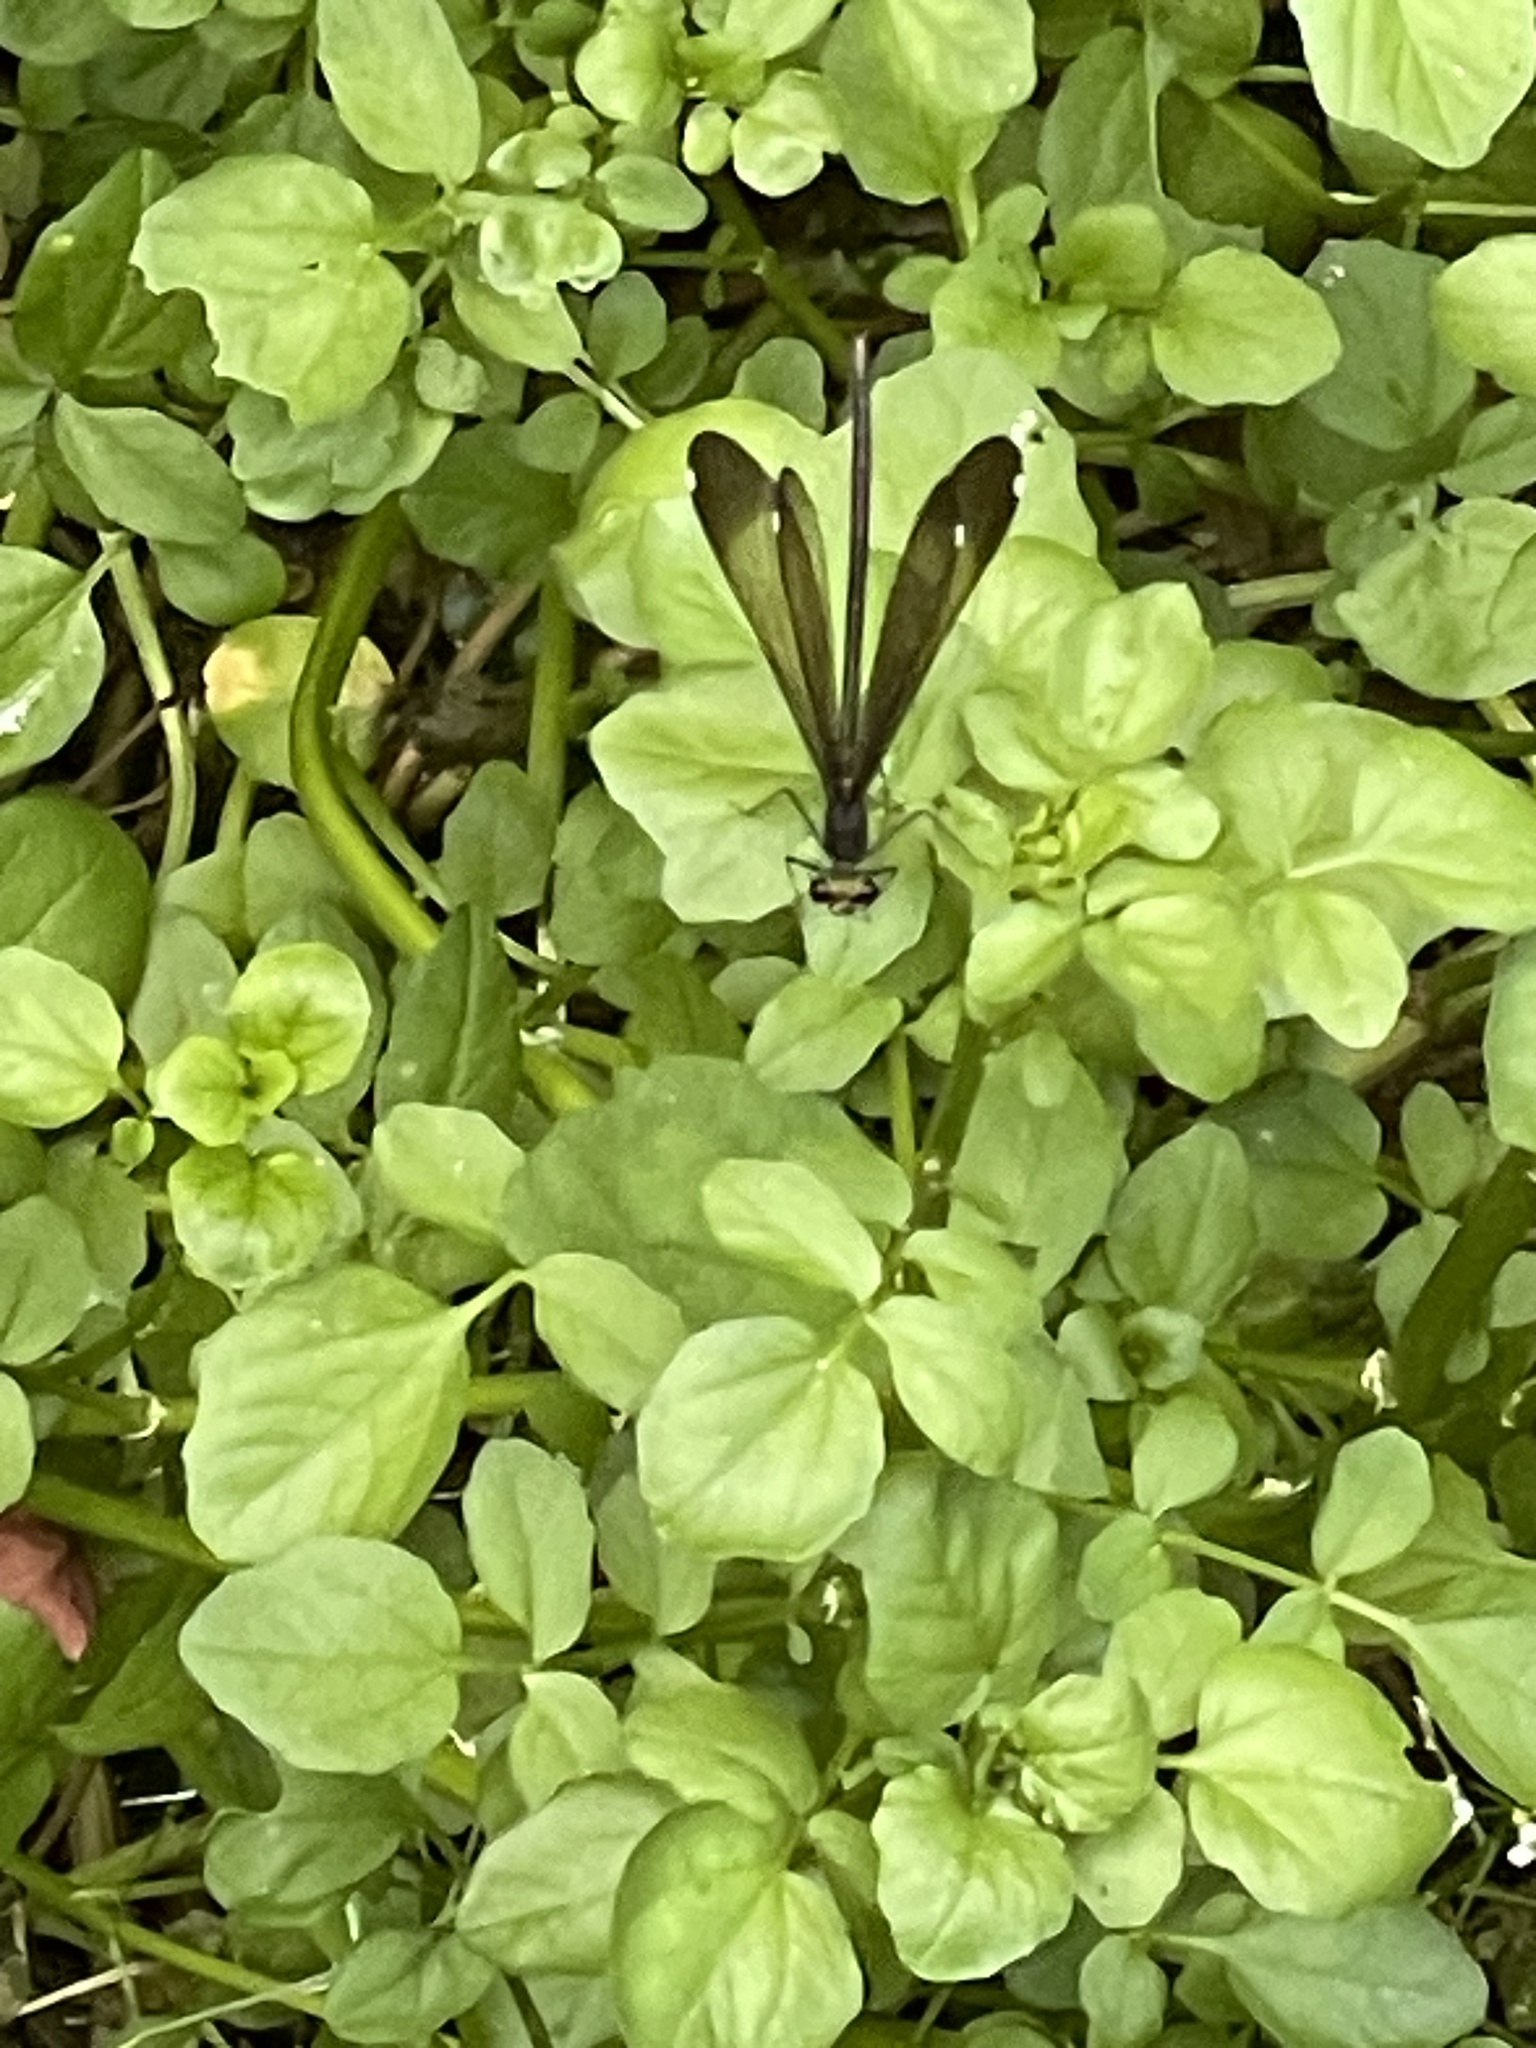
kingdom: Animalia
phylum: Arthropoda
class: Insecta
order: Odonata
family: Calopterygidae
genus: Calopteryx
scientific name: Calopteryx maculata
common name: Ebony jewelwing
